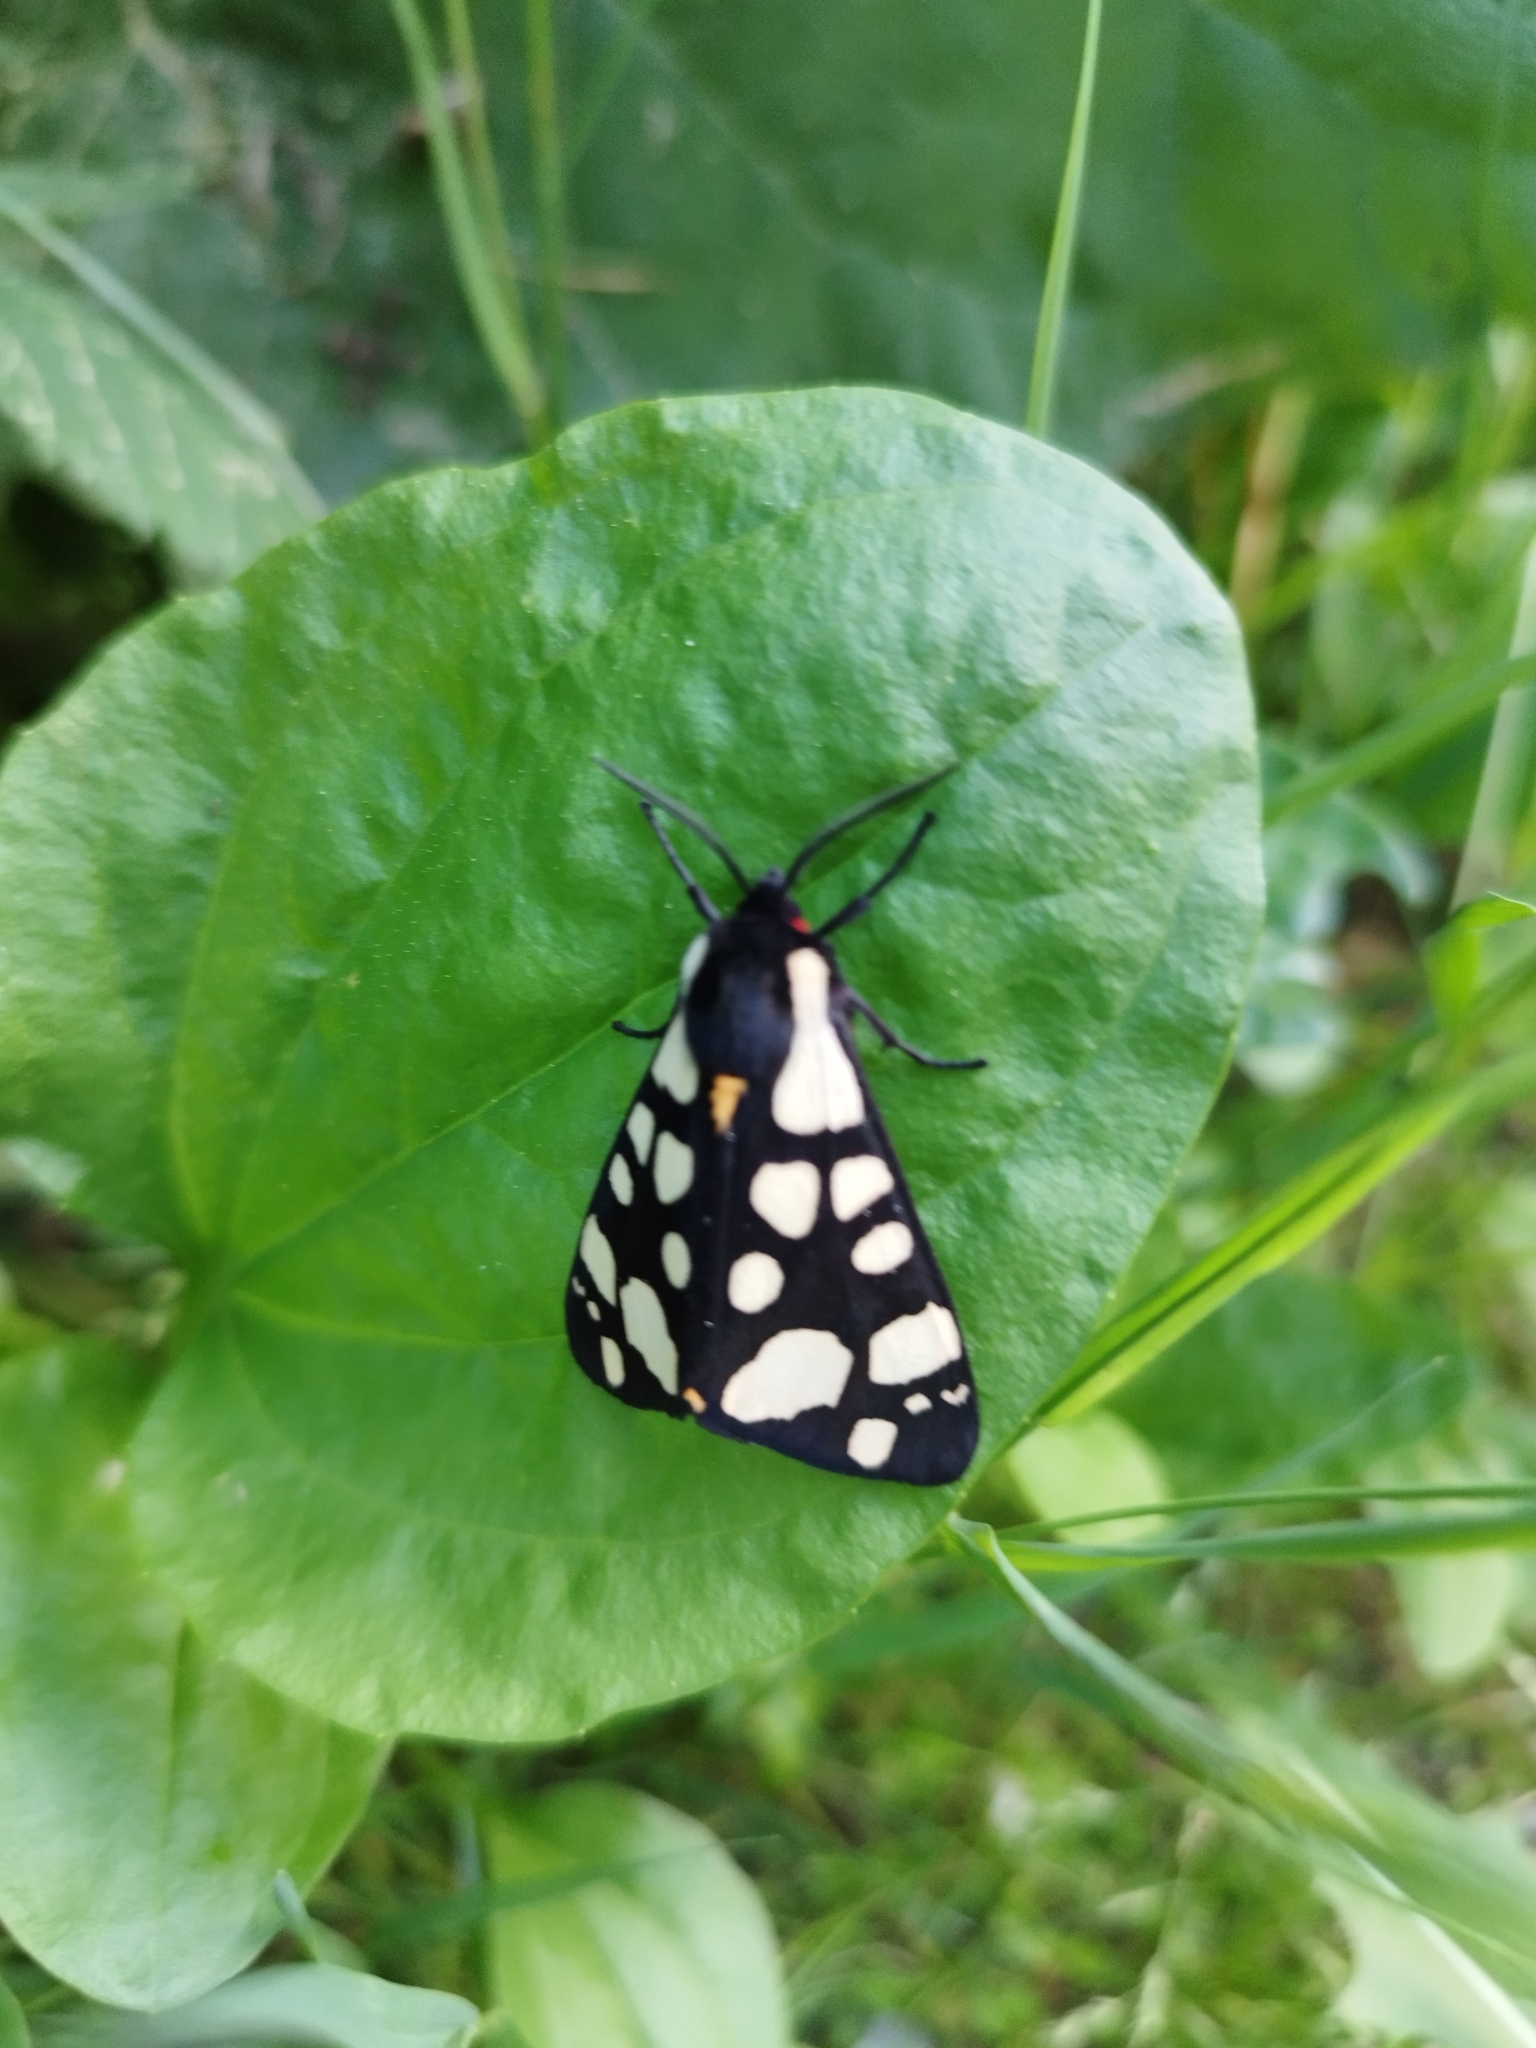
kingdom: Animalia
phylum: Arthropoda
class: Insecta
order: Lepidoptera
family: Erebidae
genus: Epicallia
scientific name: Epicallia villica
